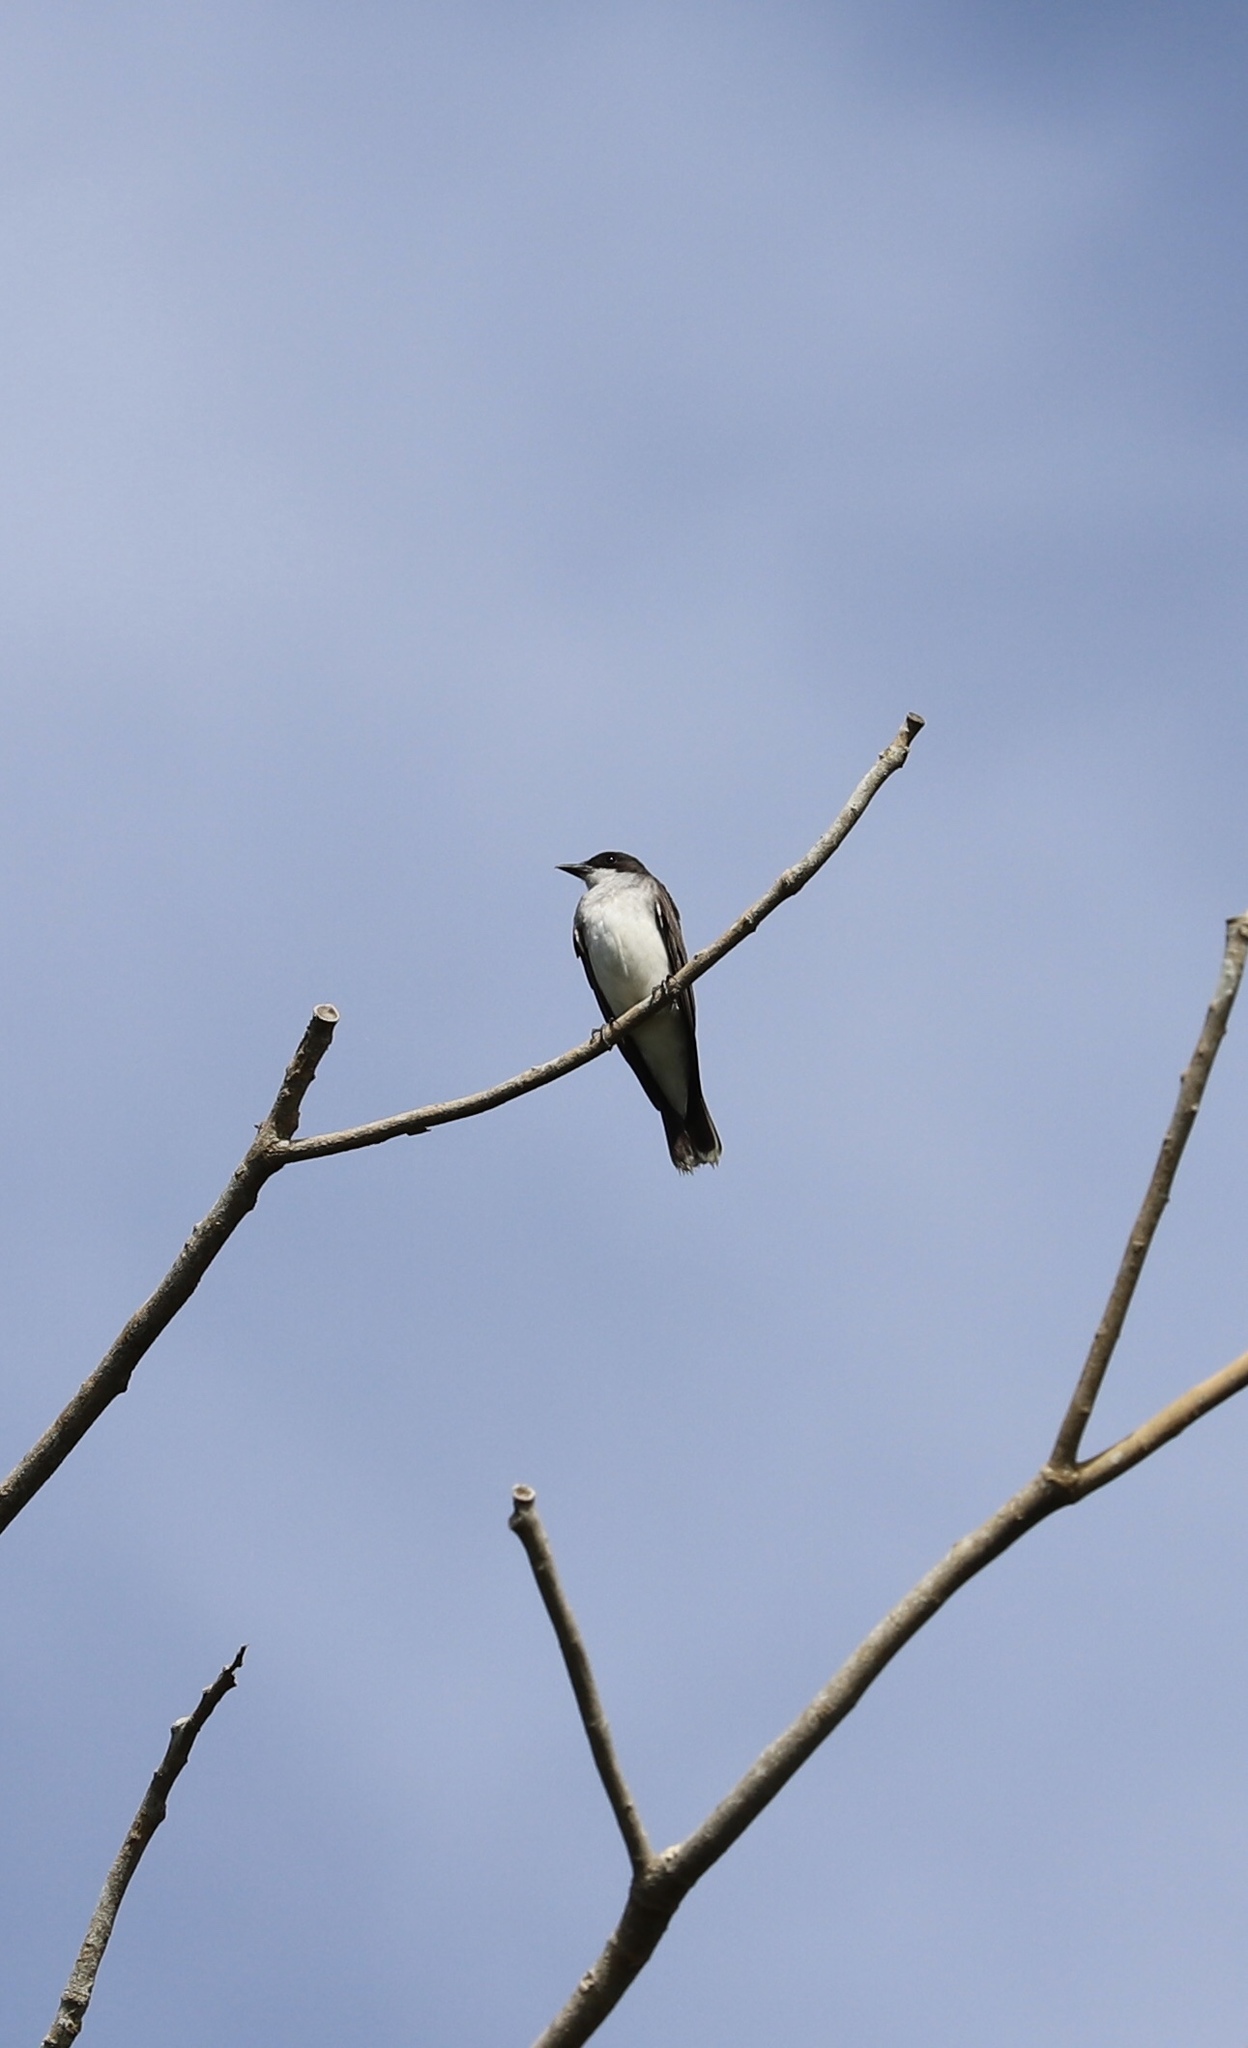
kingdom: Animalia
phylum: Chordata
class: Aves
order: Passeriformes
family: Tyrannidae
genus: Tyrannus
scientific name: Tyrannus tyrannus
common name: Eastern kingbird
